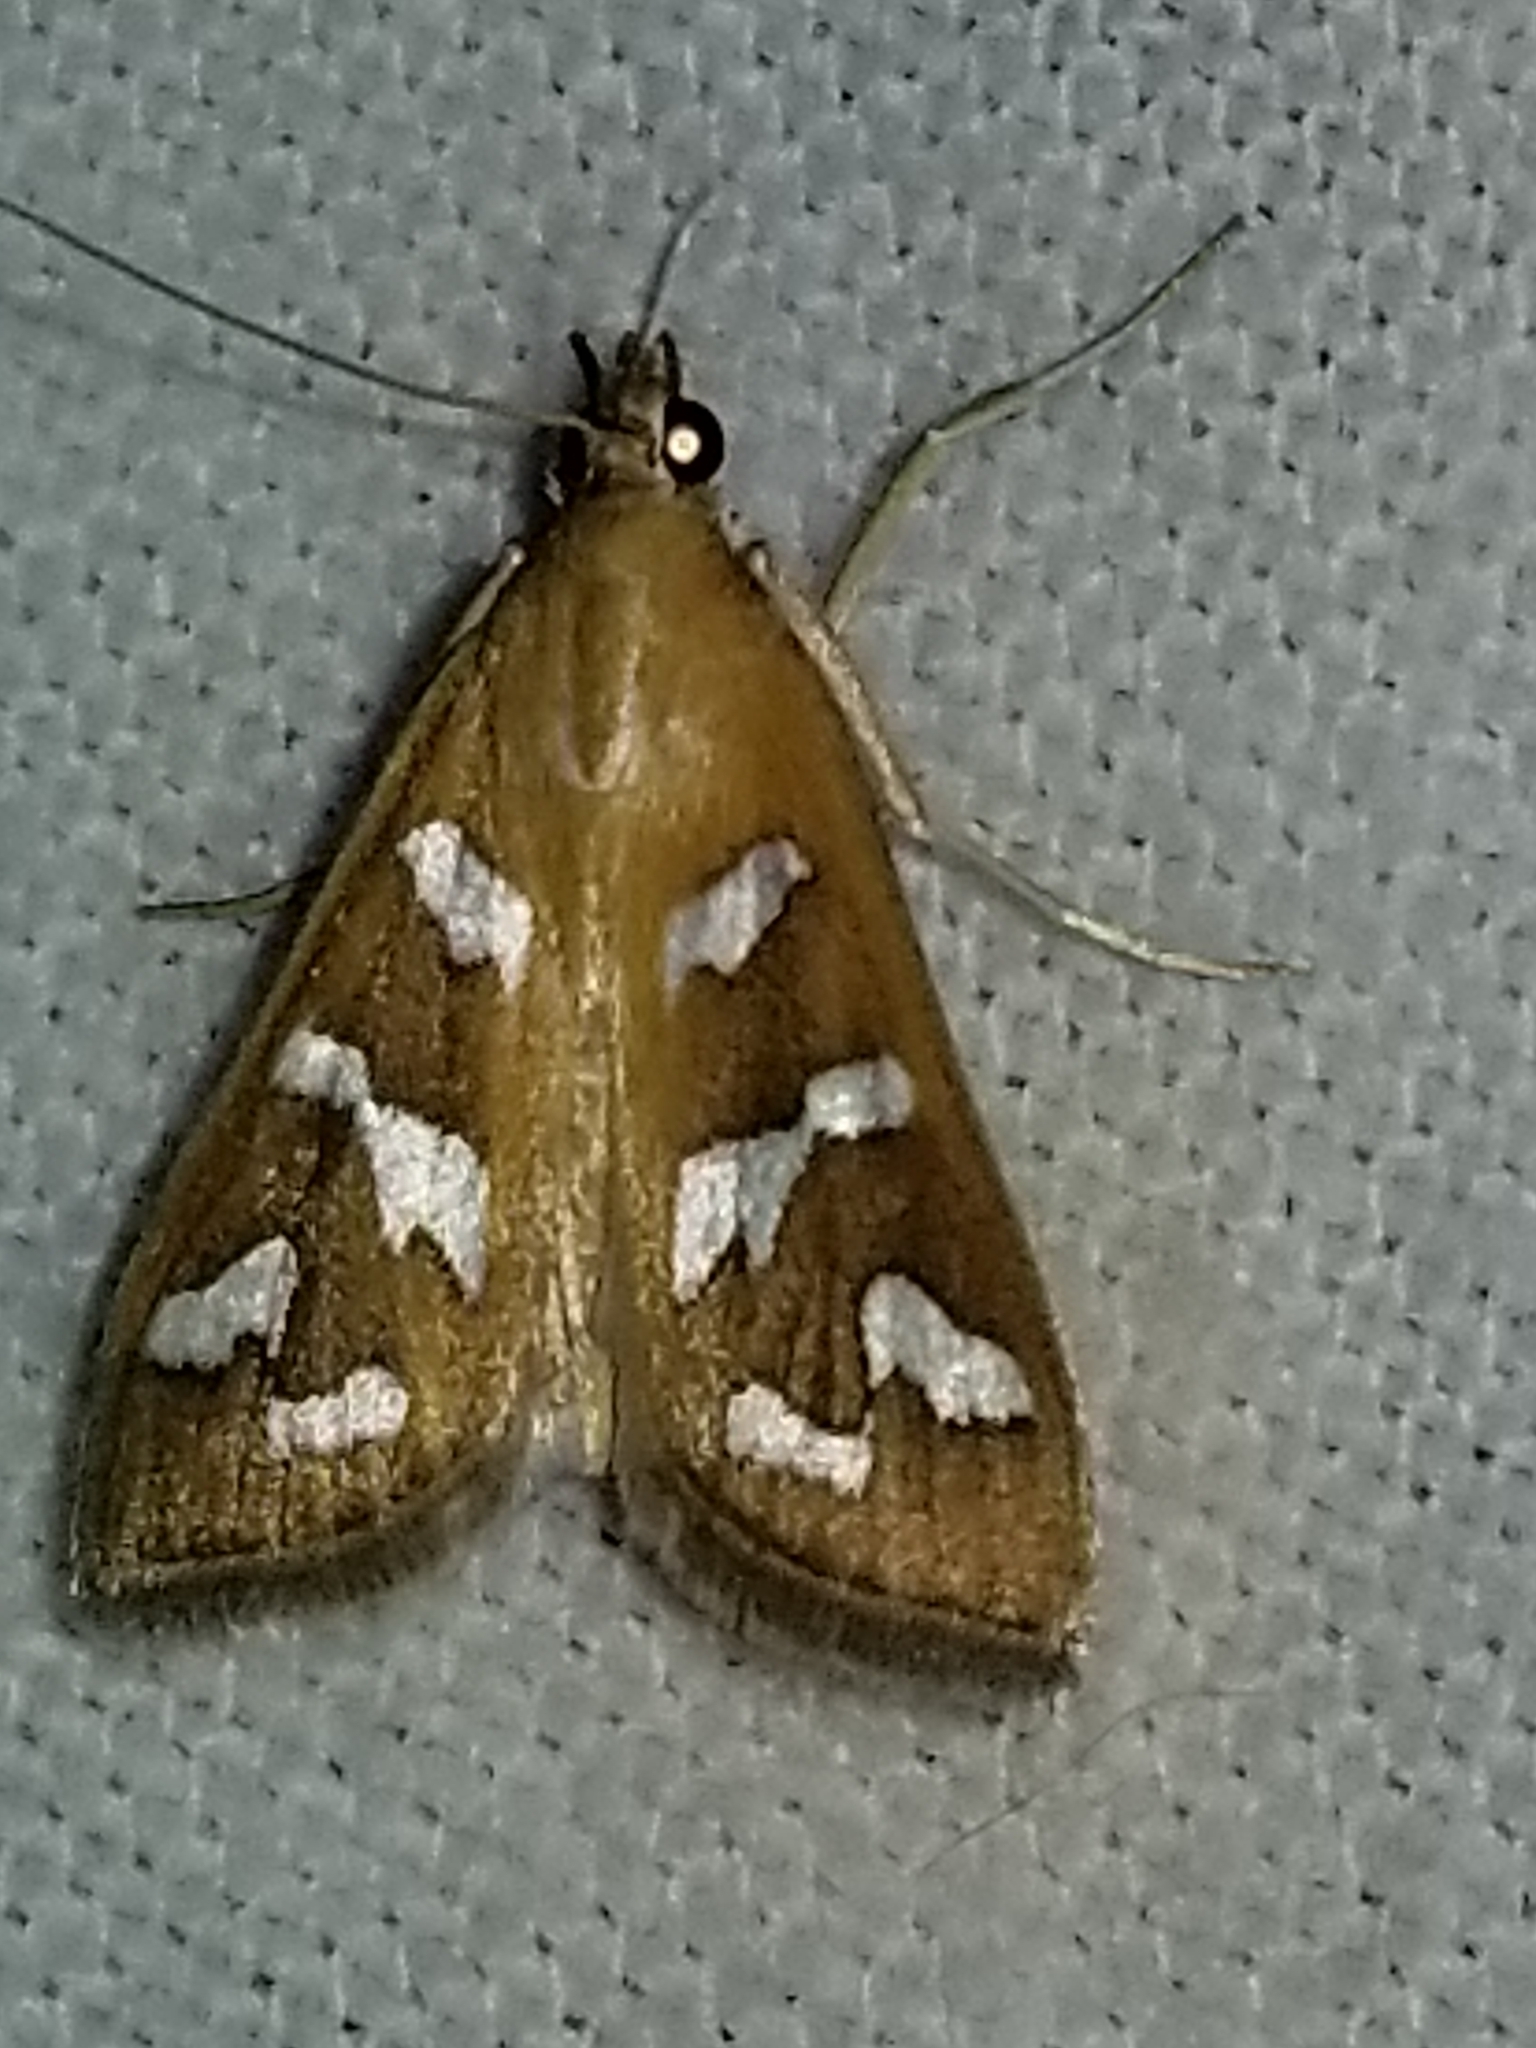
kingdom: Animalia
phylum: Arthropoda
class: Insecta
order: Lepidoptera
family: Crambidae
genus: Diastictis
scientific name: Diastictis fracturalis
